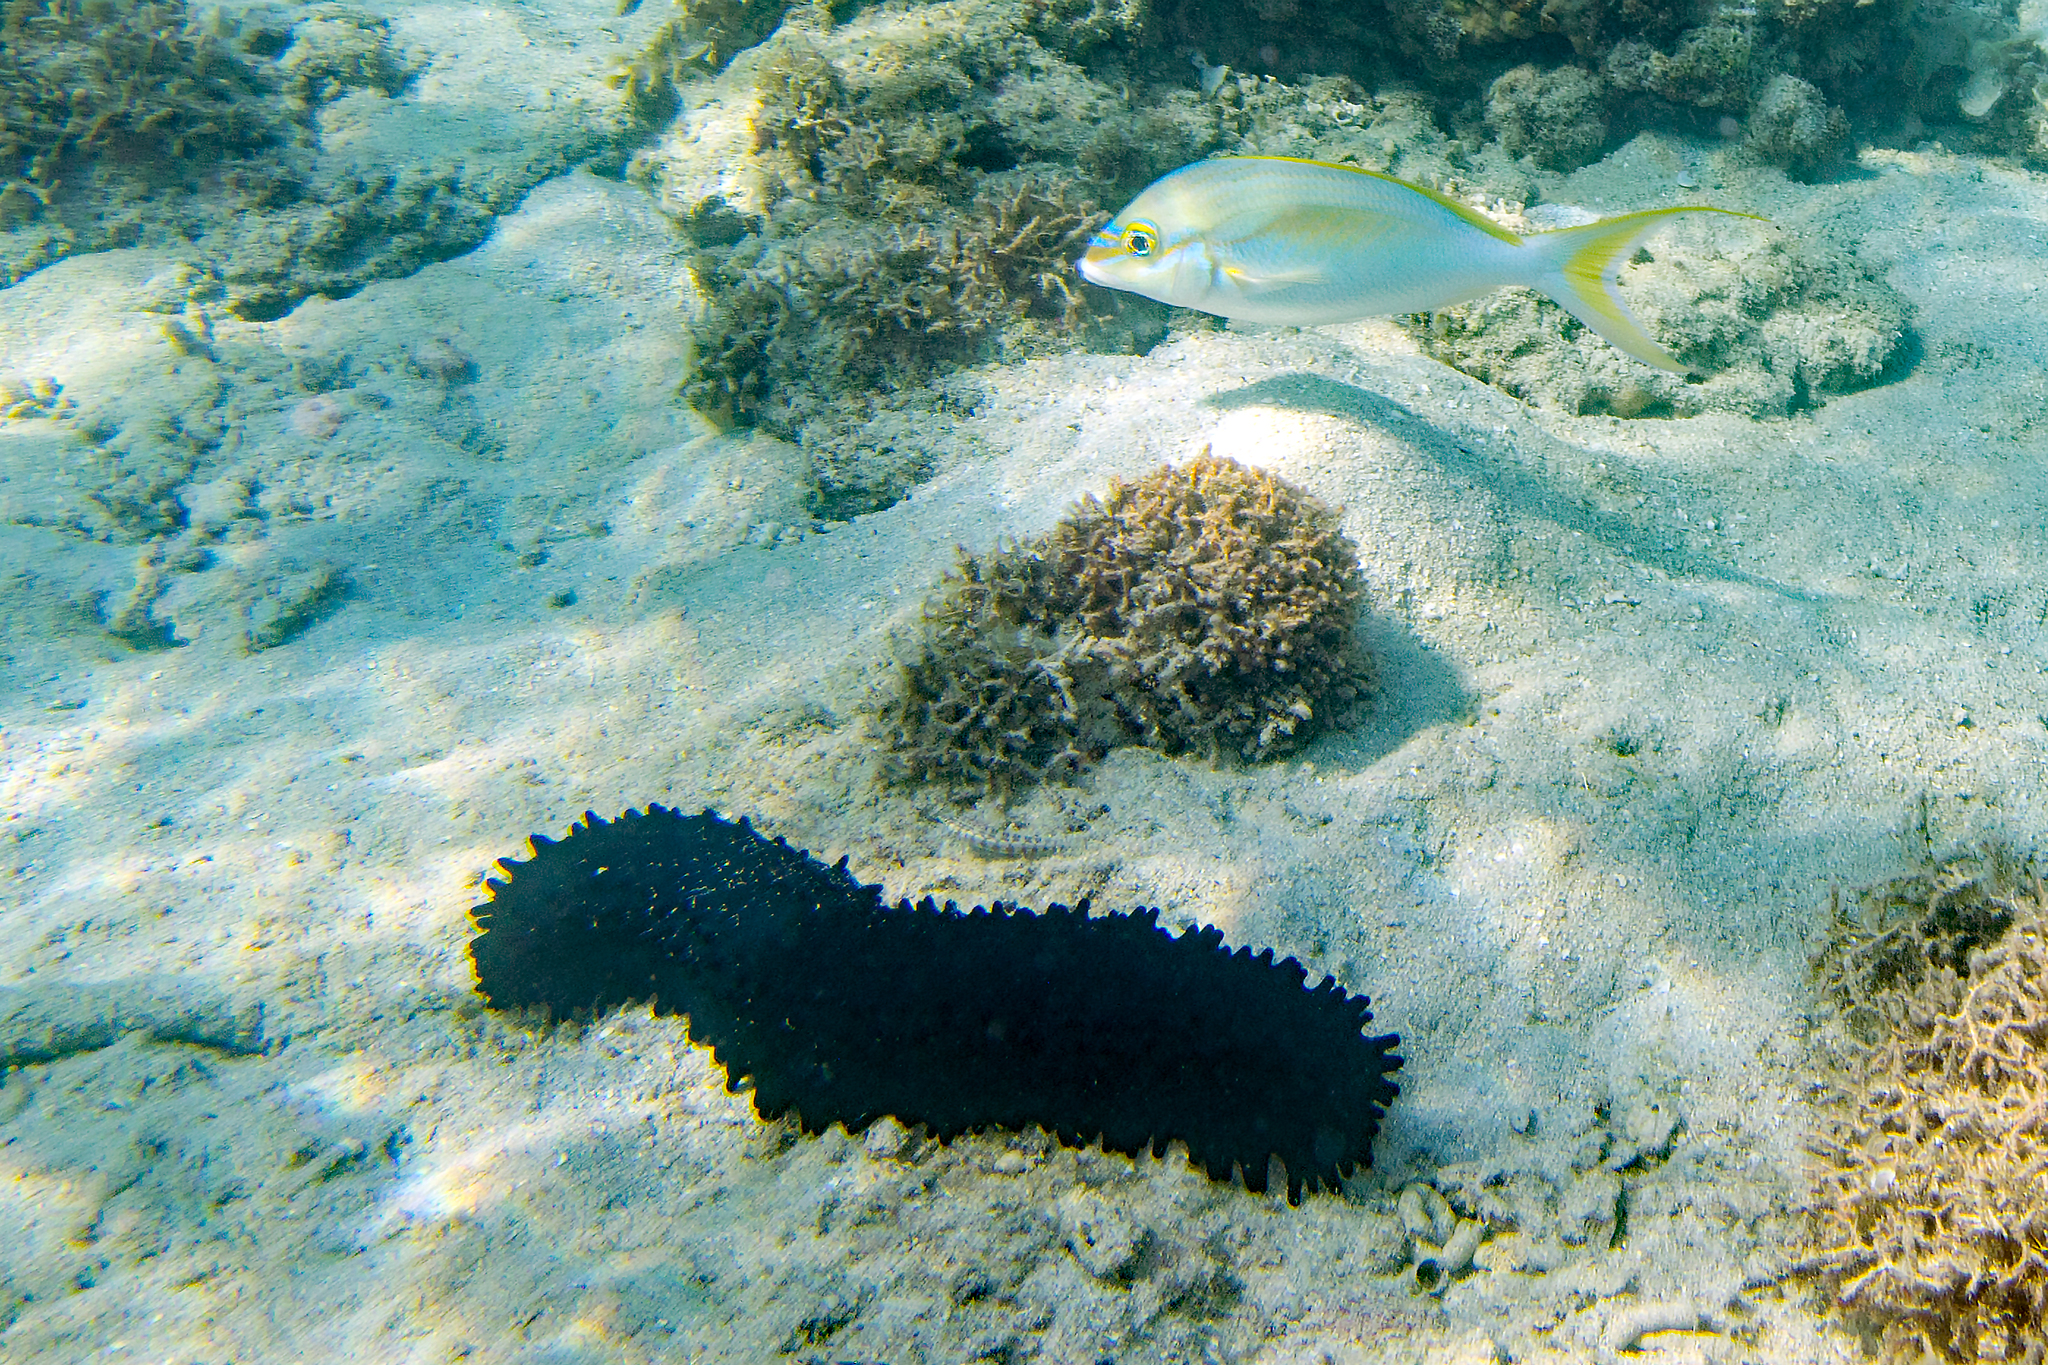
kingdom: Animalia
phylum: Echinodermata
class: Holothuroidea
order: Synallactida
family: Stichopodidae
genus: Stichopus
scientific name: Stichopus chloronotus
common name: Greenfish
